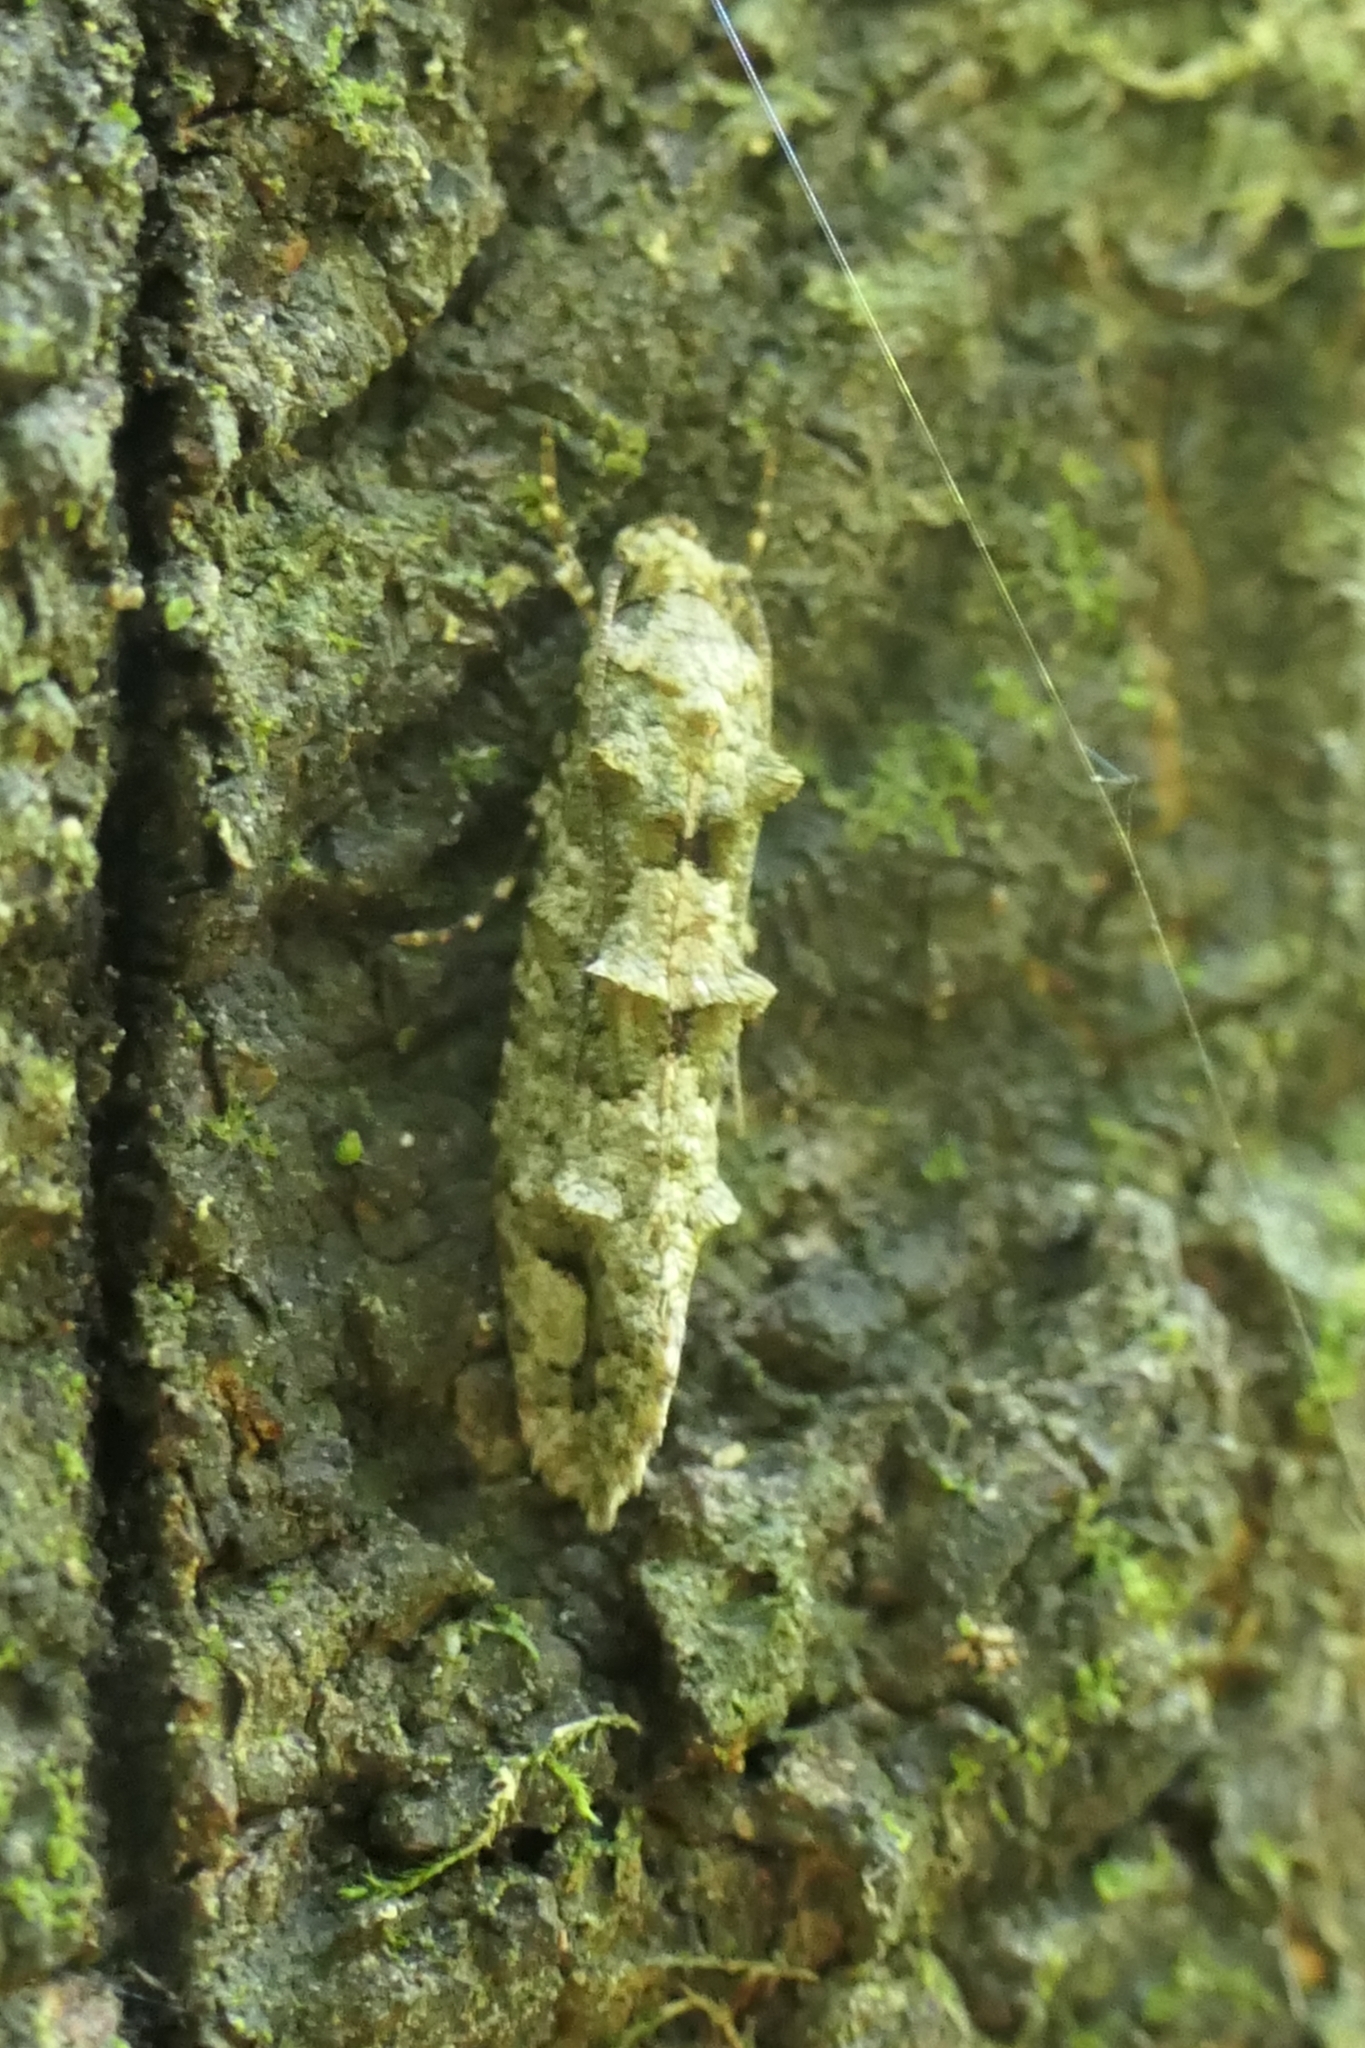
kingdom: Animalia
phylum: Arthropoda
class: Insecta
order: Lepidoptera
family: Tineidae
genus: Lysiphragma
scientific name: Lysiphragma howesii
